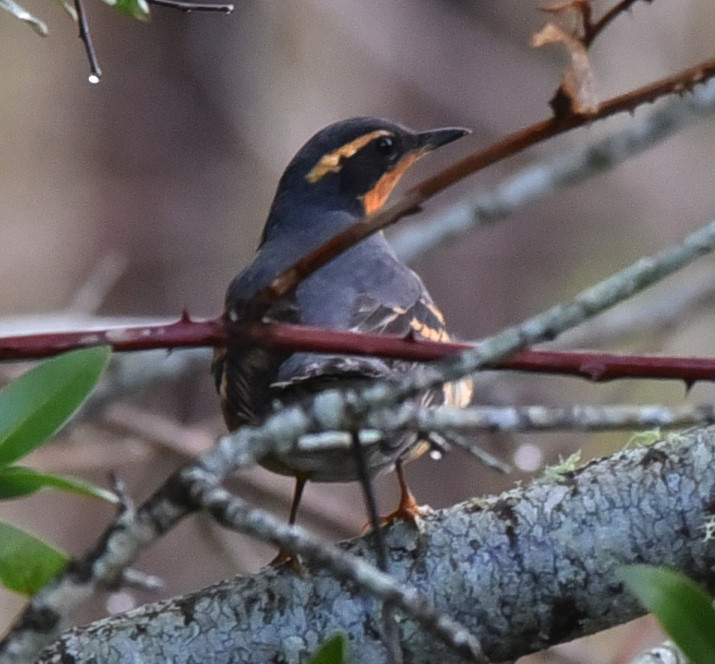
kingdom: Animalia
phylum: Chordata
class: Aves
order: Passeriformes
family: Turdidae
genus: Ixoreus
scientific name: Ixoreus naevius
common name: Varied thrush
